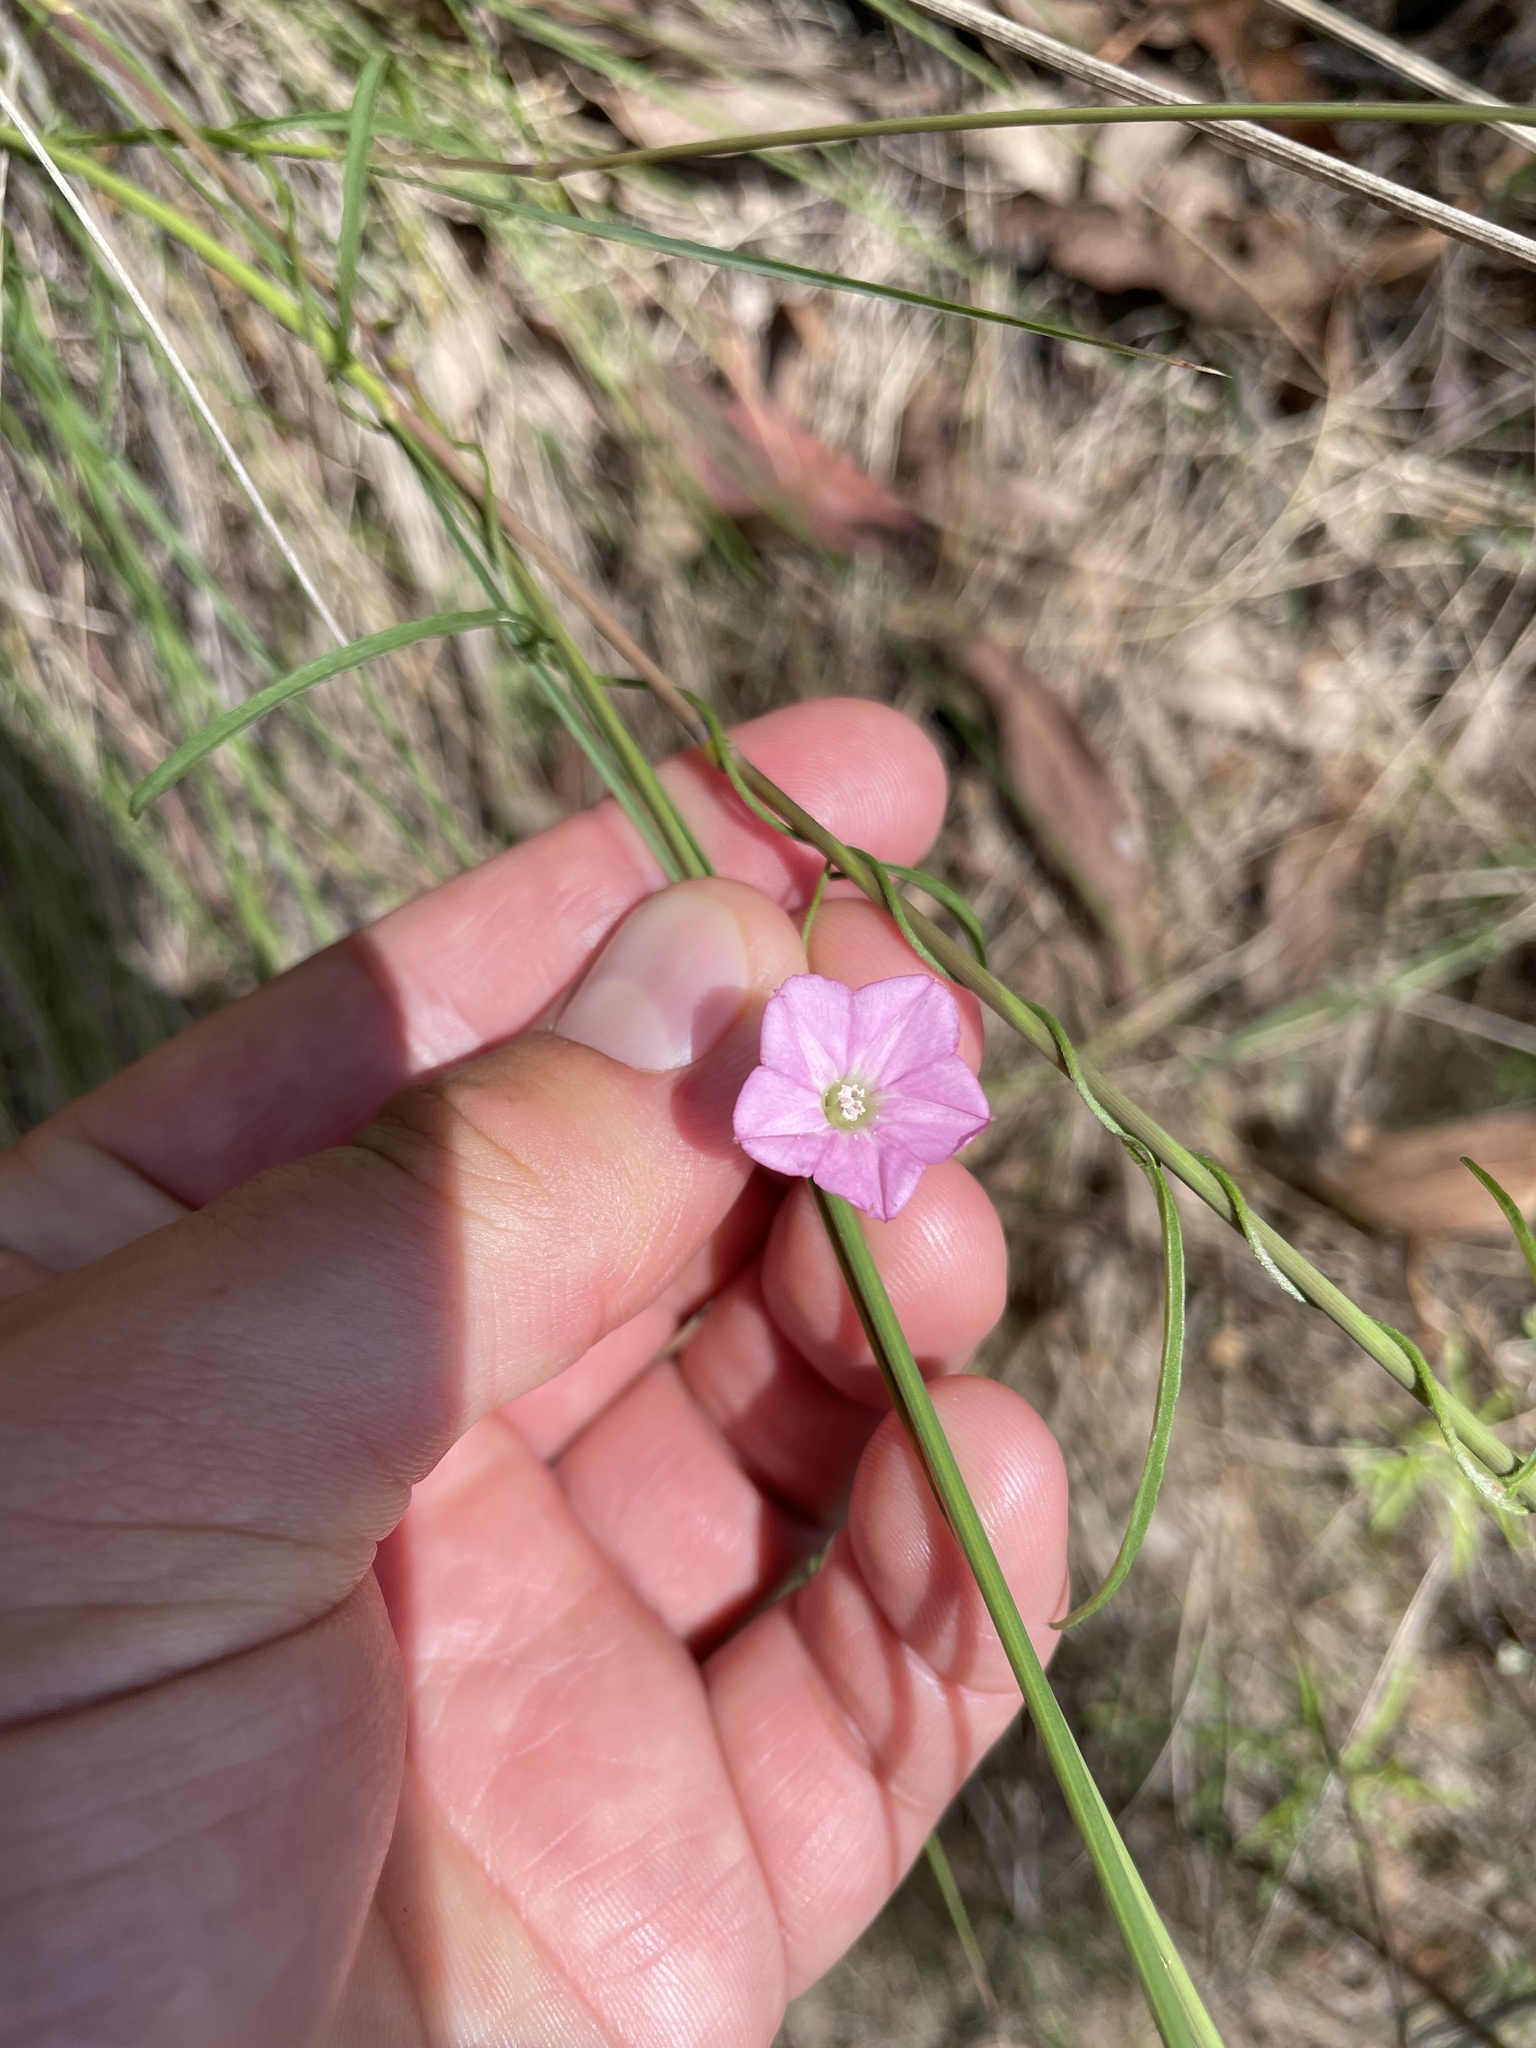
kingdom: Plantae
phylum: Tracheophyta
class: Magnoliopsida
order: Solanales
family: Convolvulaceae
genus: Convolvulus
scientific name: Convolvulus angustissimus
